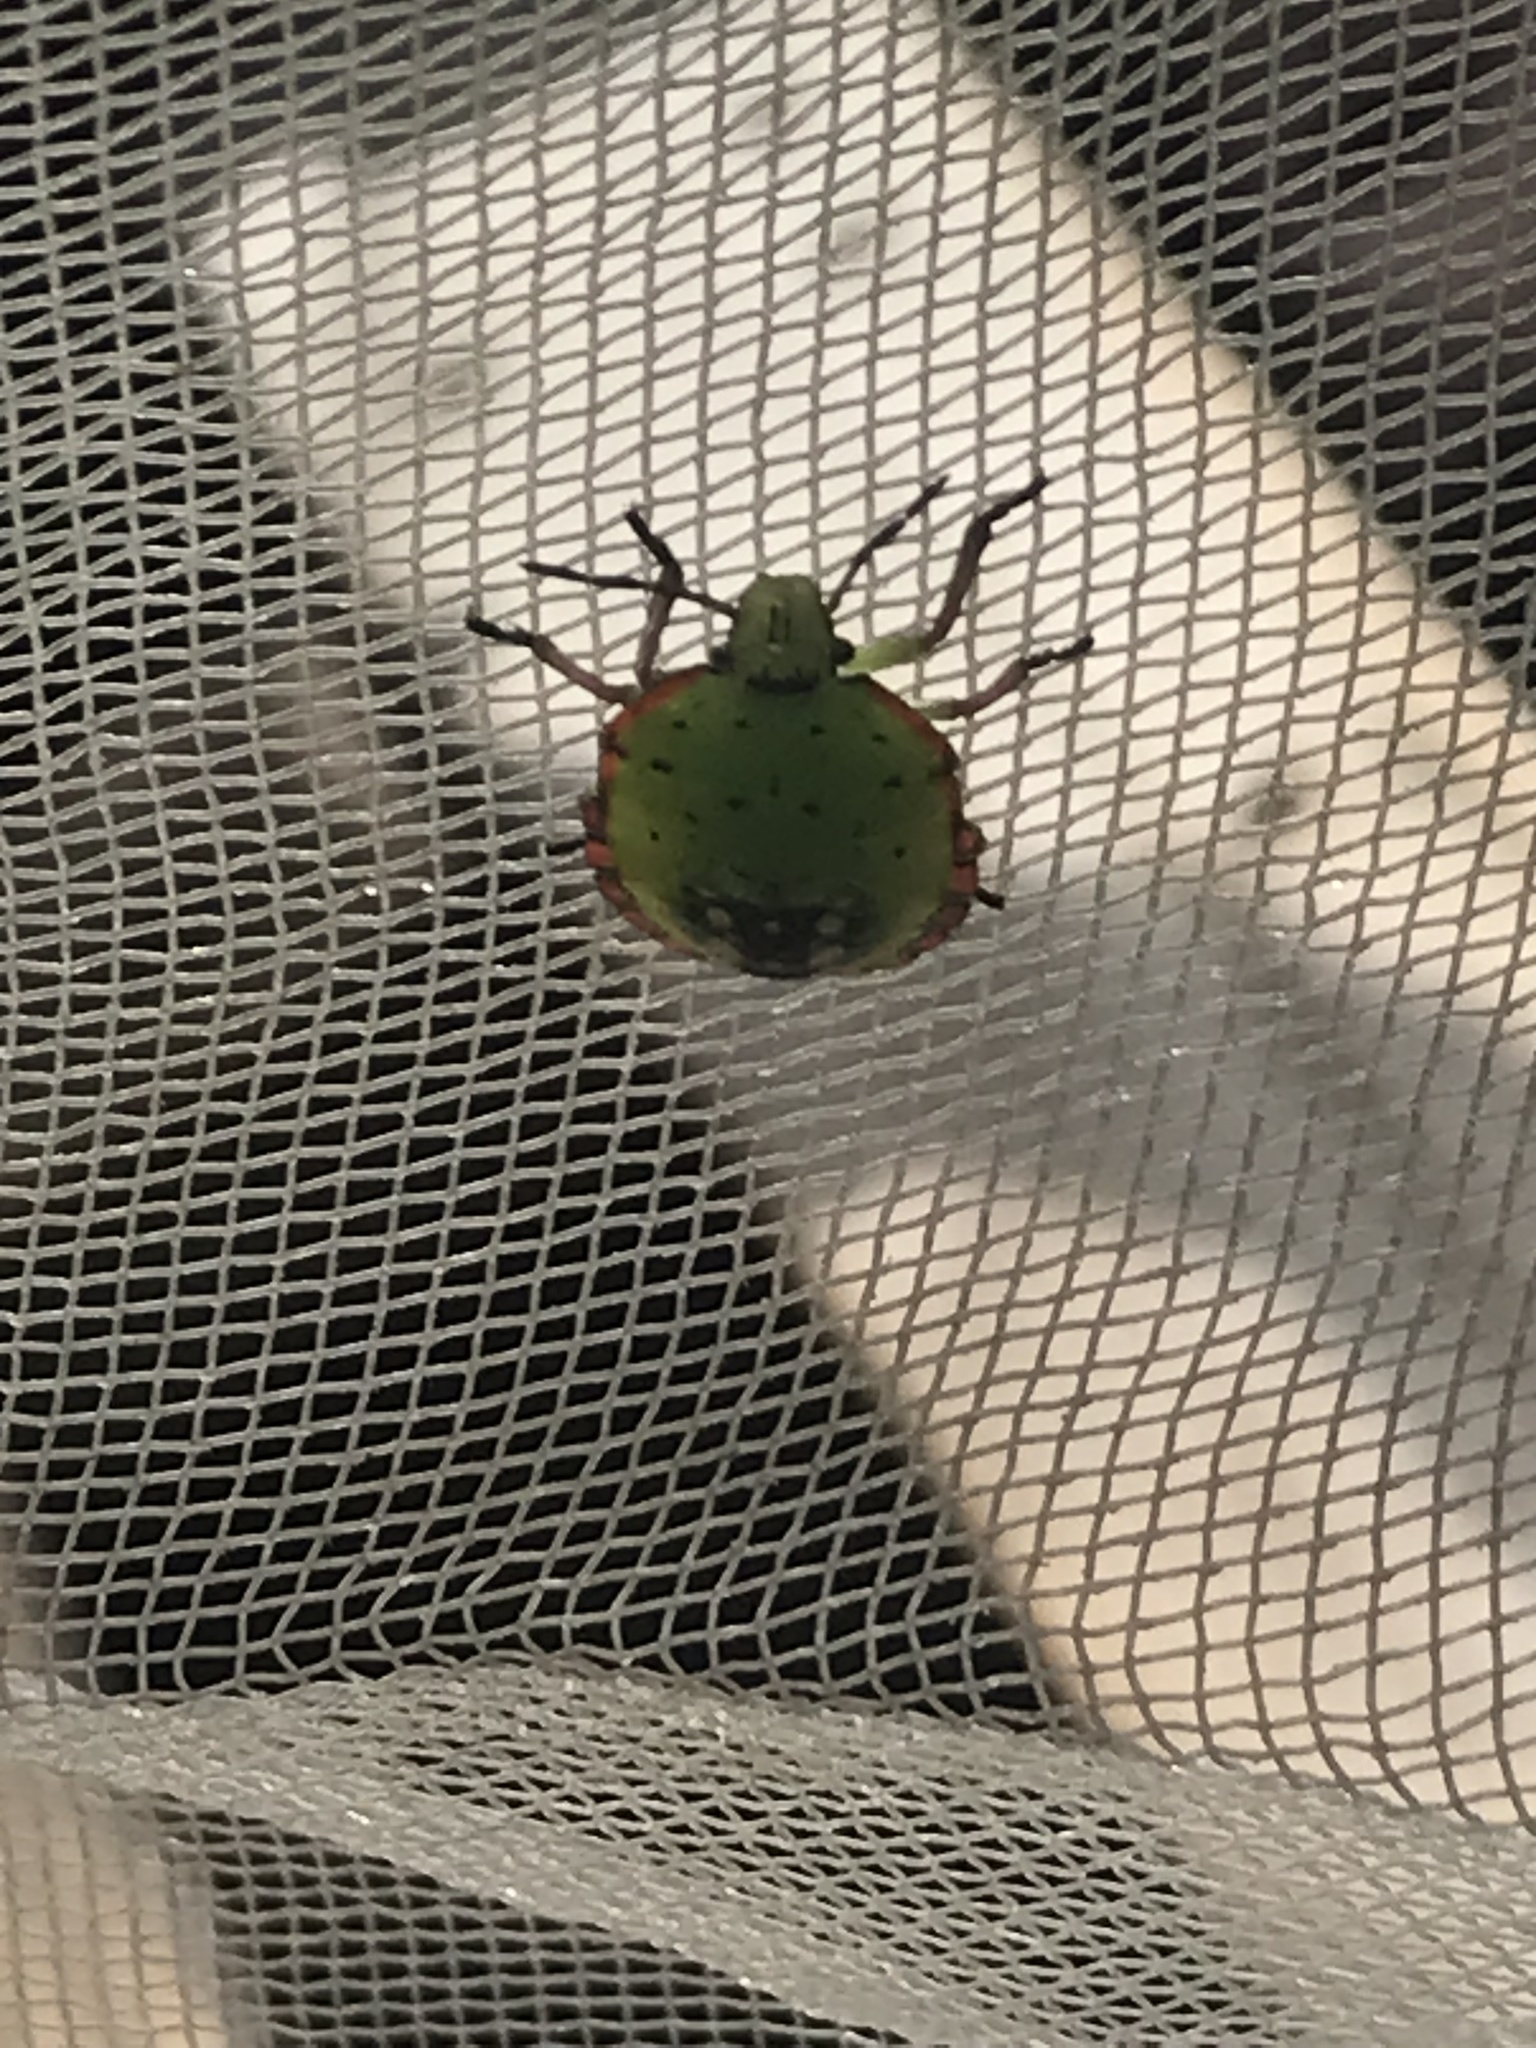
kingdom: Animalia
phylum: Arthropoda
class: Insecta
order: Hemiptera
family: Pentatomidae
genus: Nezara
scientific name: Nezara viridula
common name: Southern green stink bug
